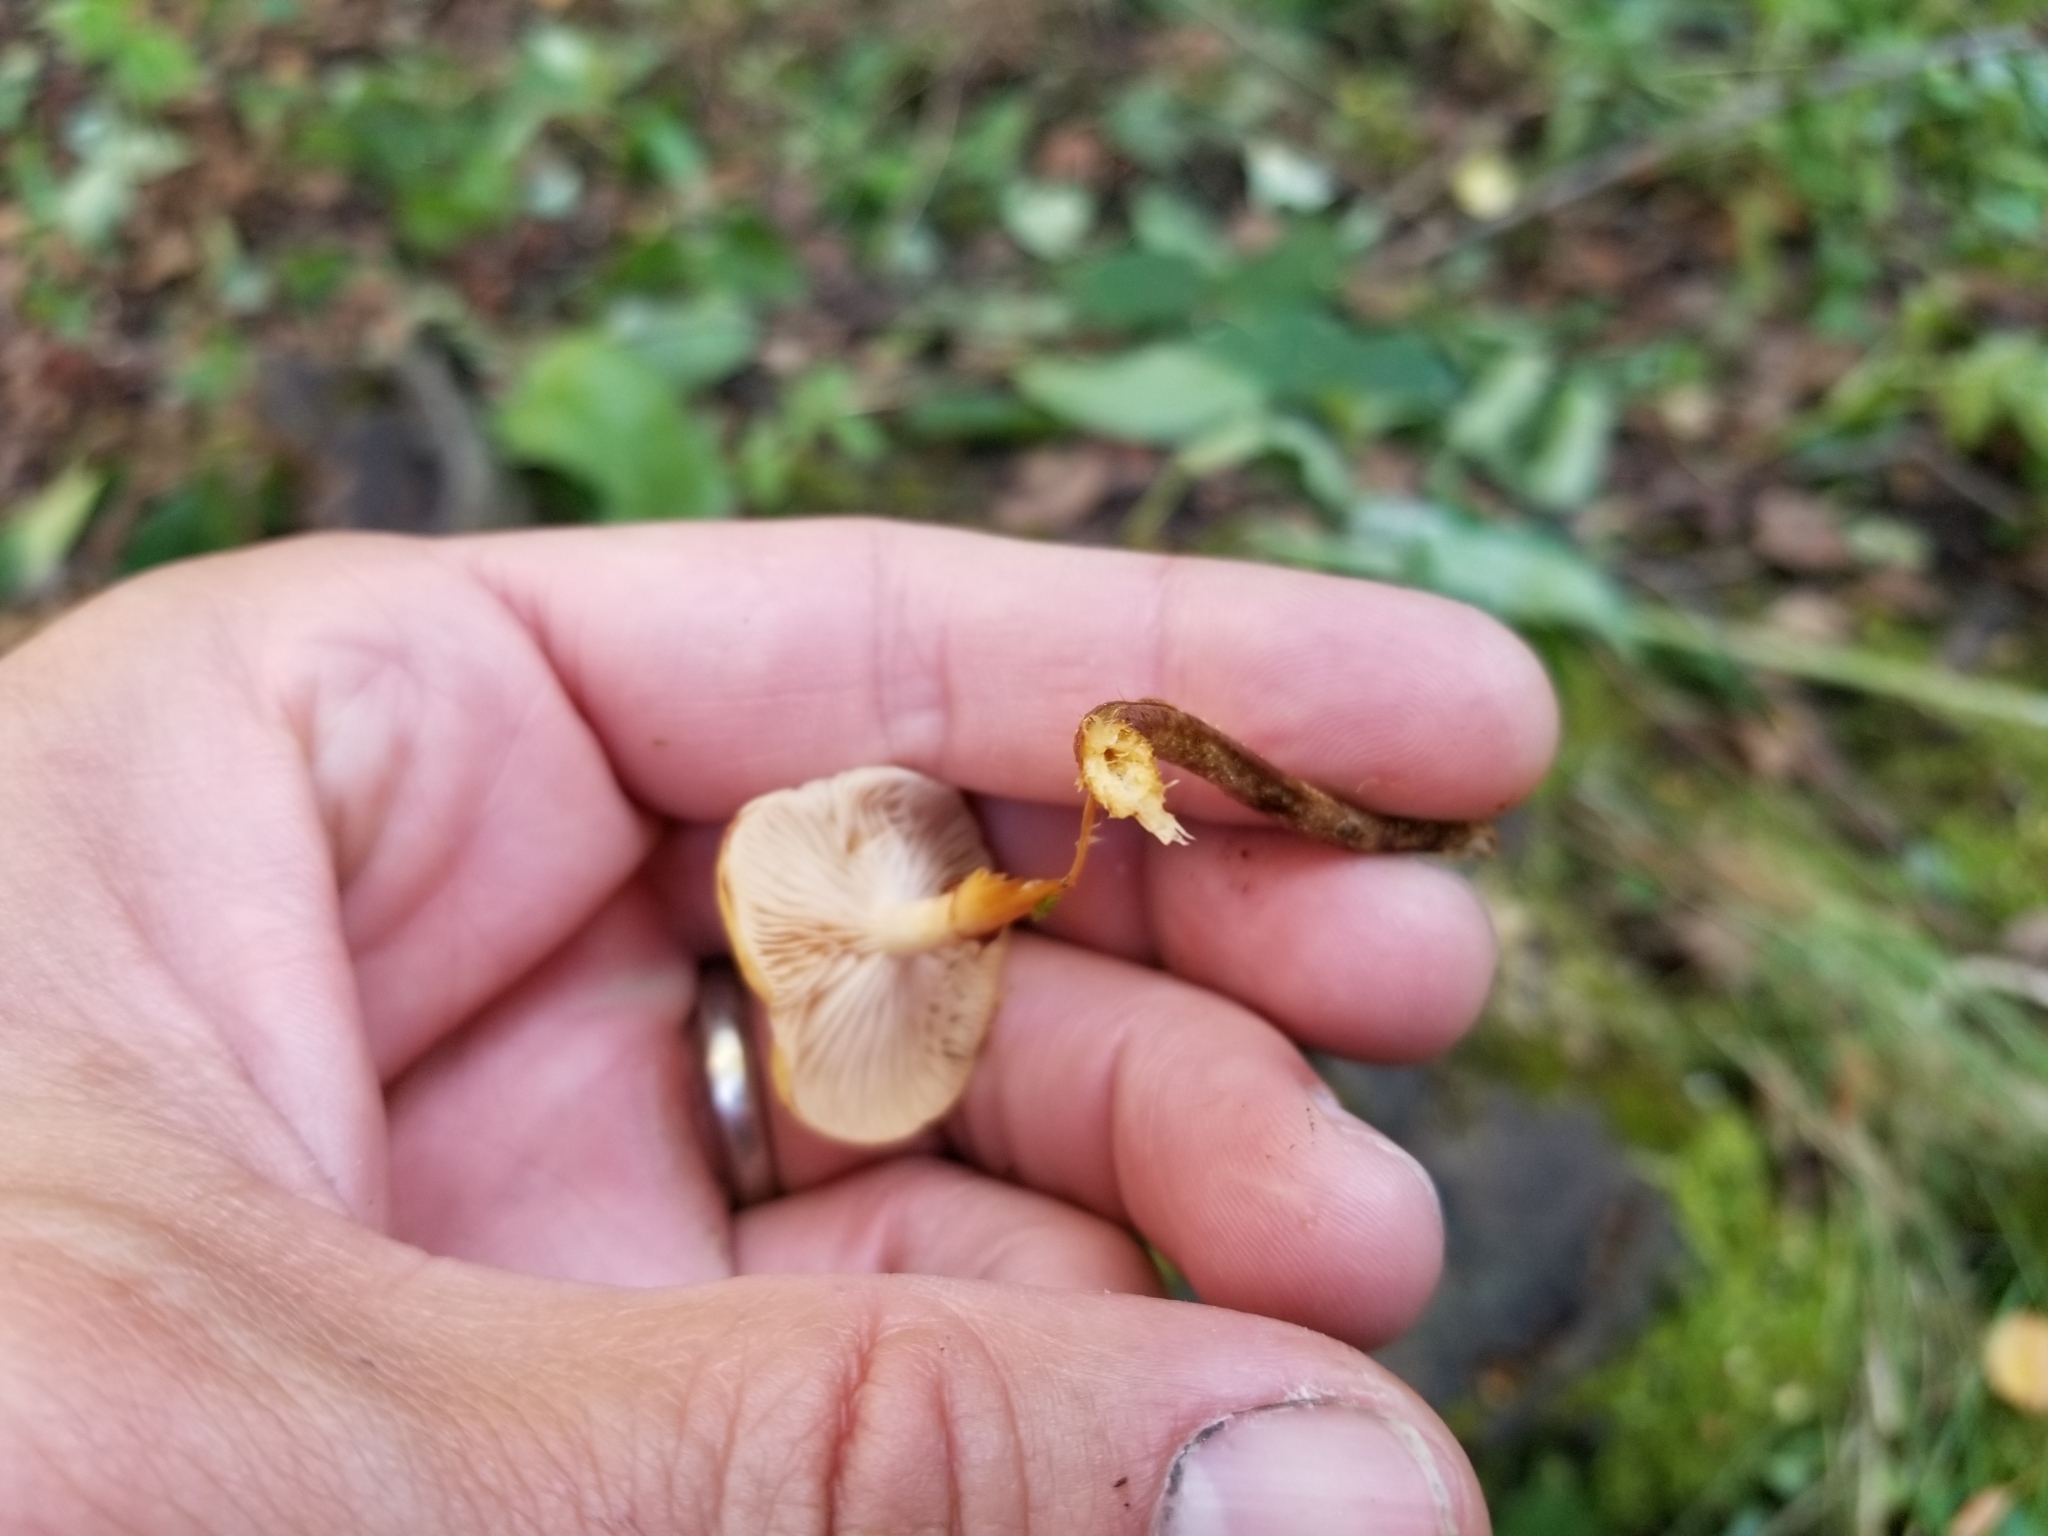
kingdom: Fungi
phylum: Basidiomycota
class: Agaricomycetes
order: Agaricales
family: Strophariaceae
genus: Pholiota
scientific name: Pholiota lignicola
